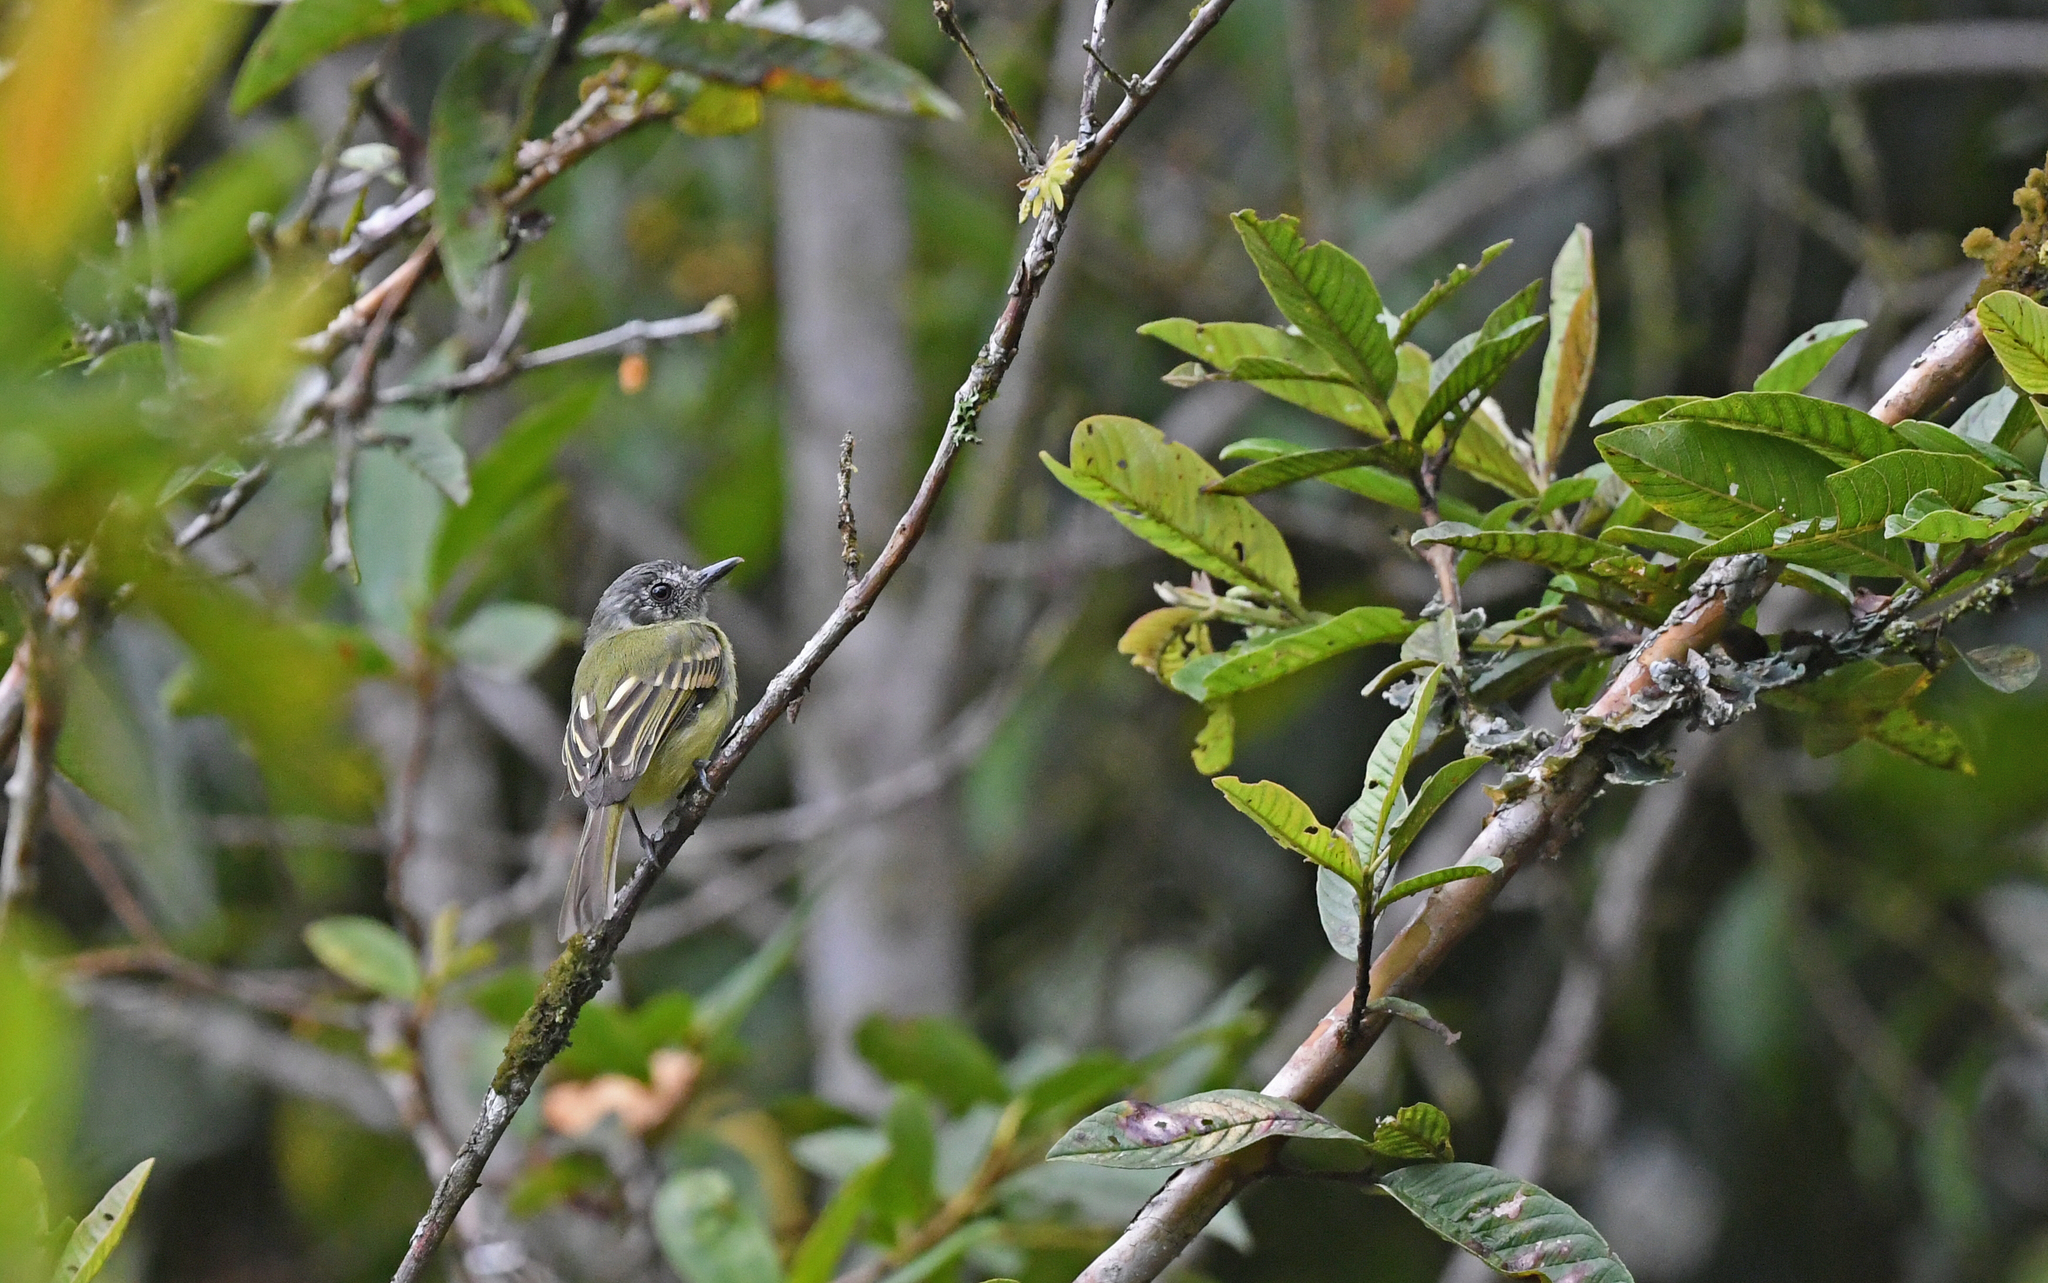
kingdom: Animalia
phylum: Chordata
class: Aves
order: Passeriformes
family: Tyrannidae
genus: Leptopogon
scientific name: Leptopogon superciliaris
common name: Slaty-capped flycatcher
